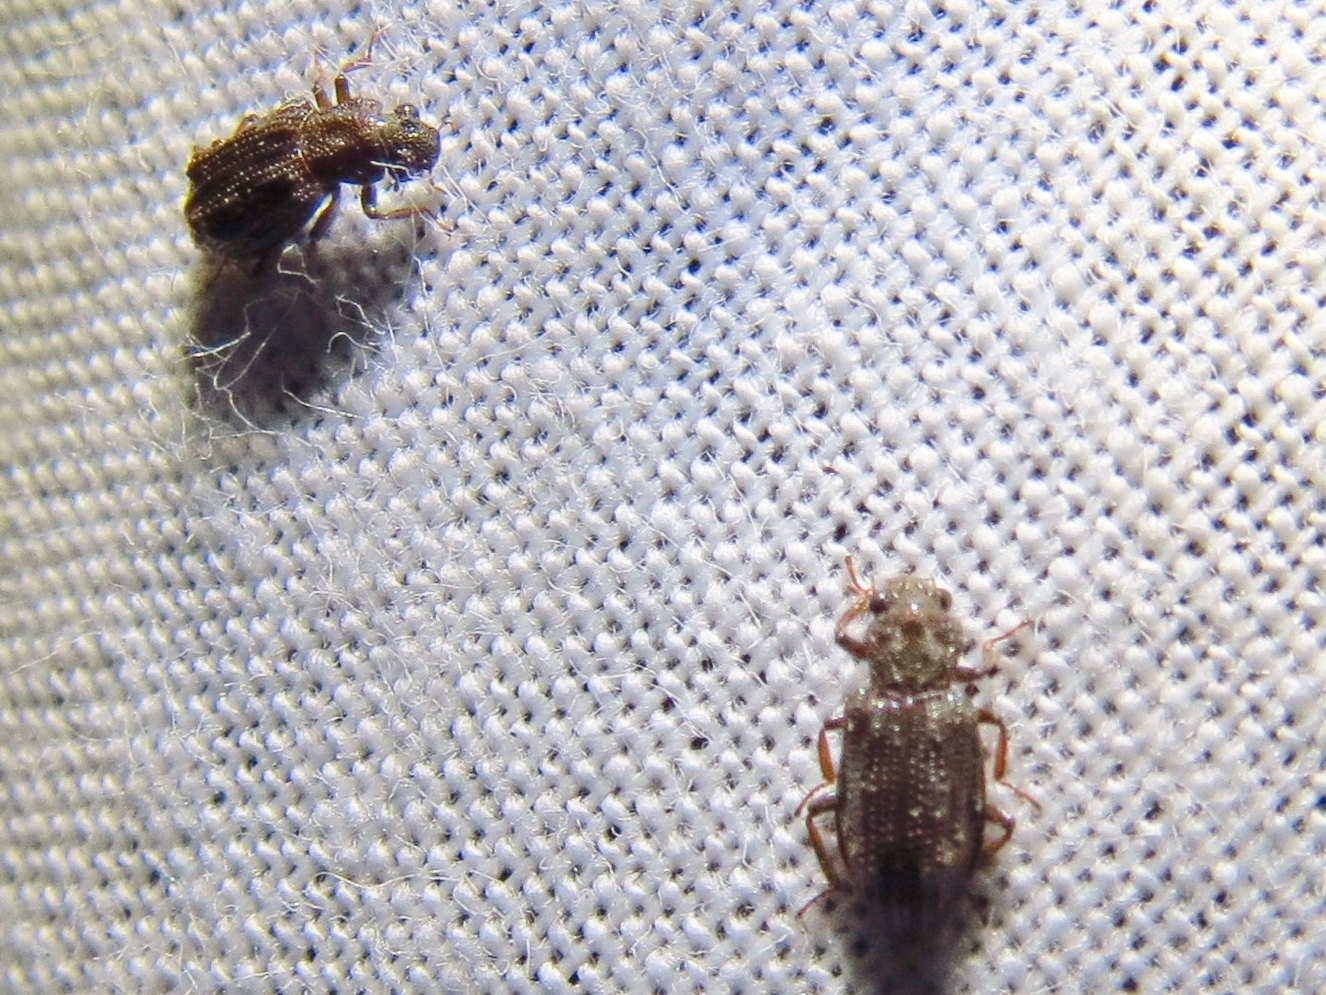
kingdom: Animalia
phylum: Arthropoda
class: Insecta
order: Coleoptera
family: Hydrochidae
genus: Hydrochus
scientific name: Hydrochus
